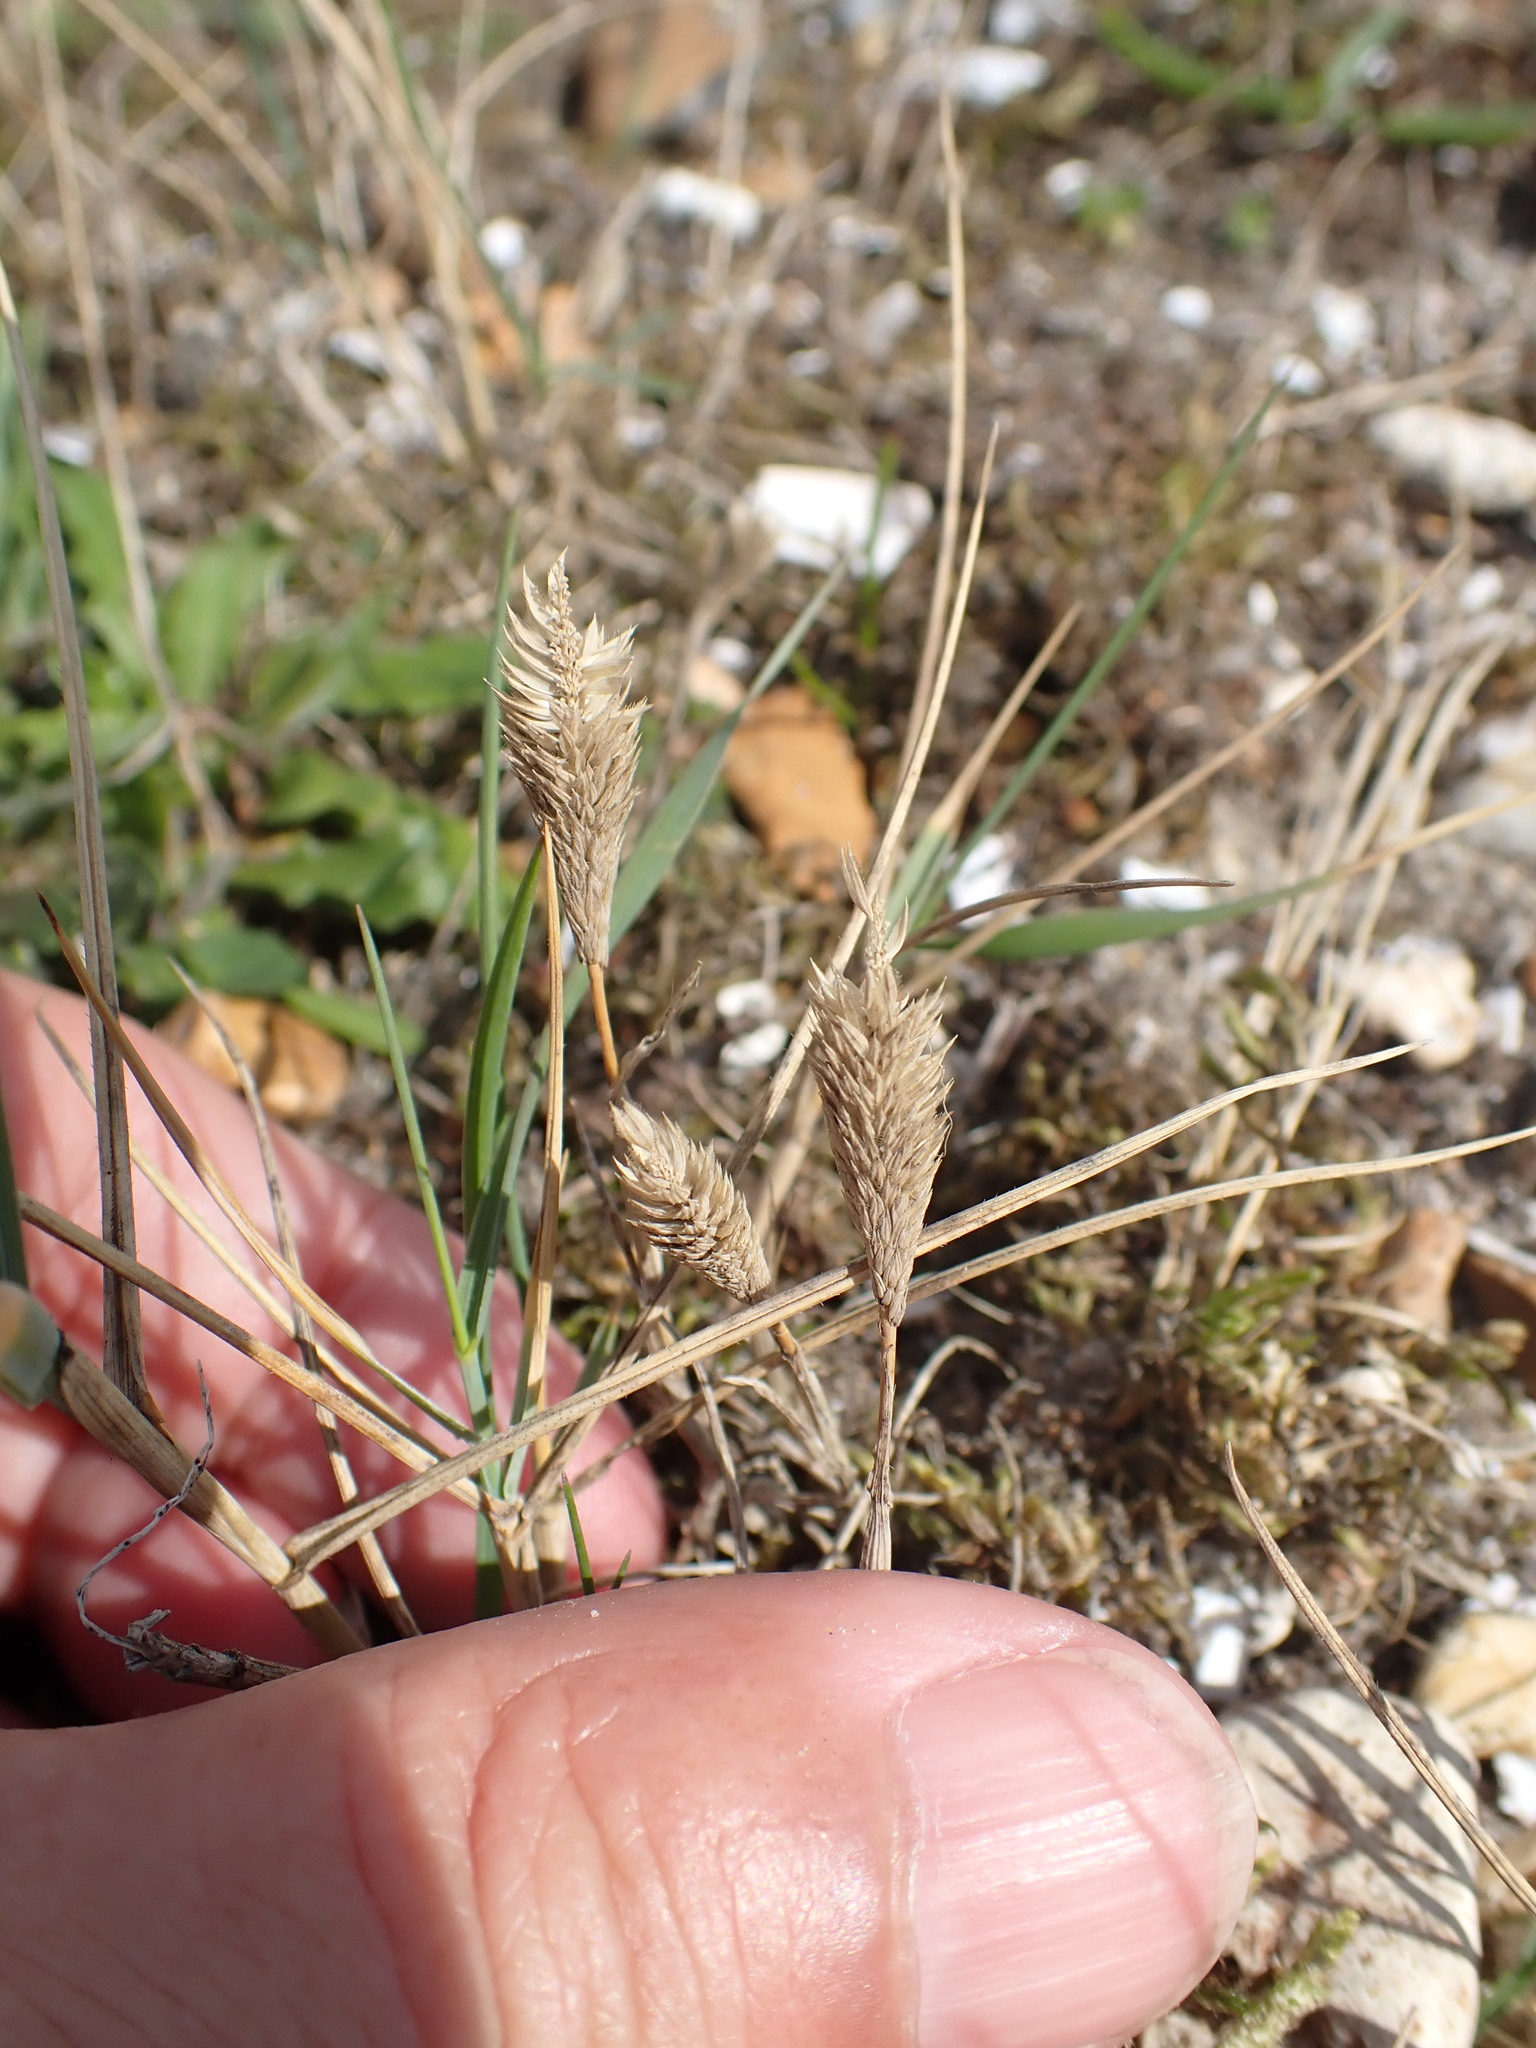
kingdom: Plantae
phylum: Tracheophyta
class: Liliopsida
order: Poales
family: Poaceae
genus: Phleum
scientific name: Phleum arenarium
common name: Sand cat's-tail
